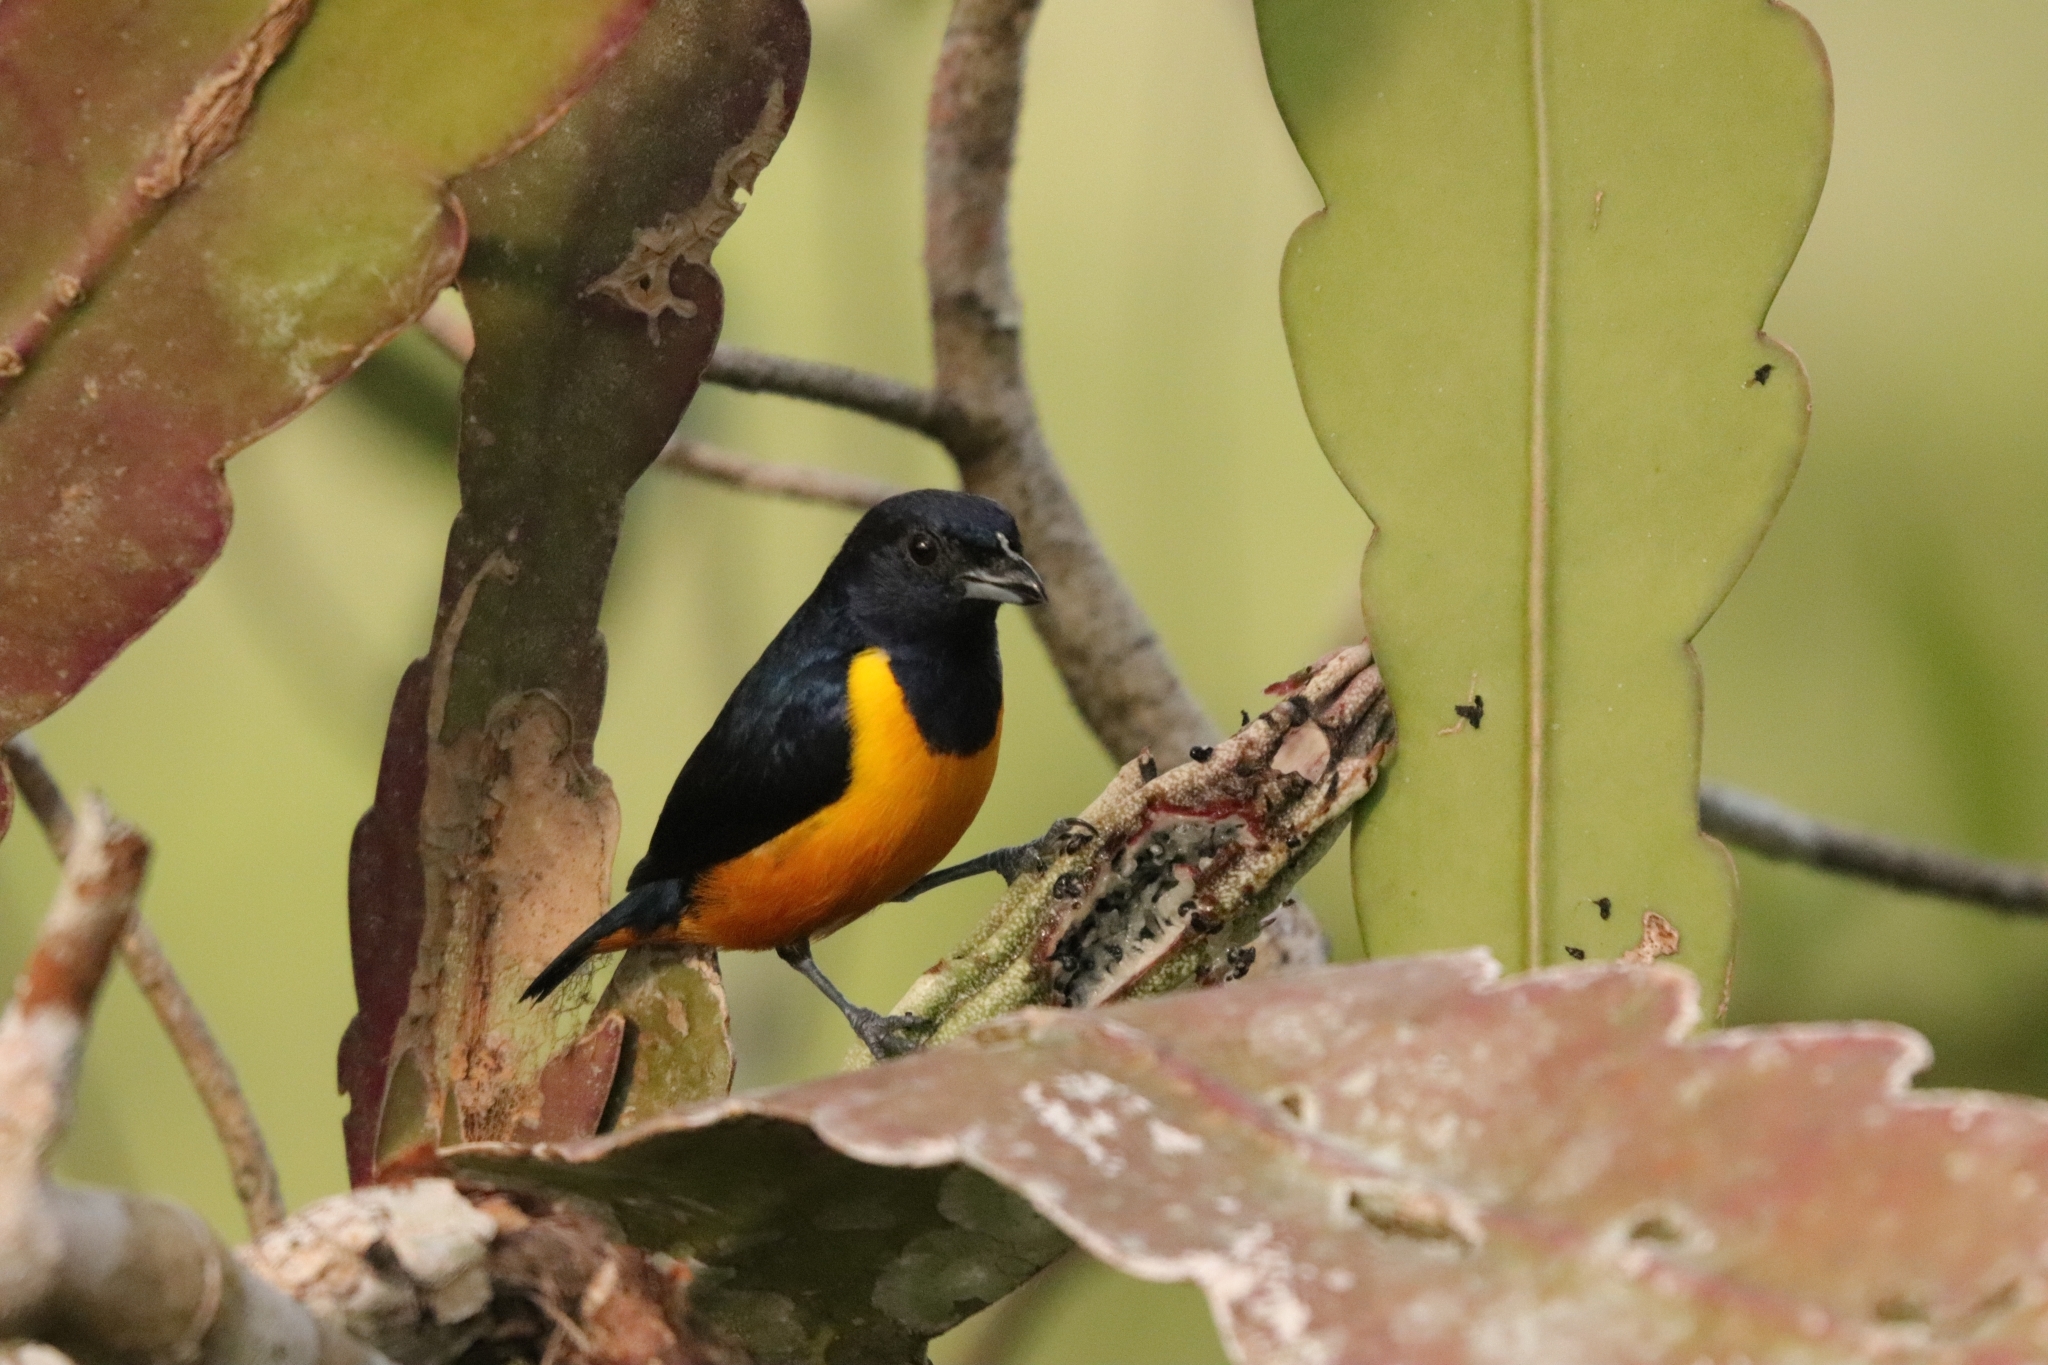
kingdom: Animalia
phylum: Chordata
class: Aves
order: Passeriformes
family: Fringillidae
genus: Euphonia
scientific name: Euphonia rufiventris
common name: Rufous-bellied euphonia
